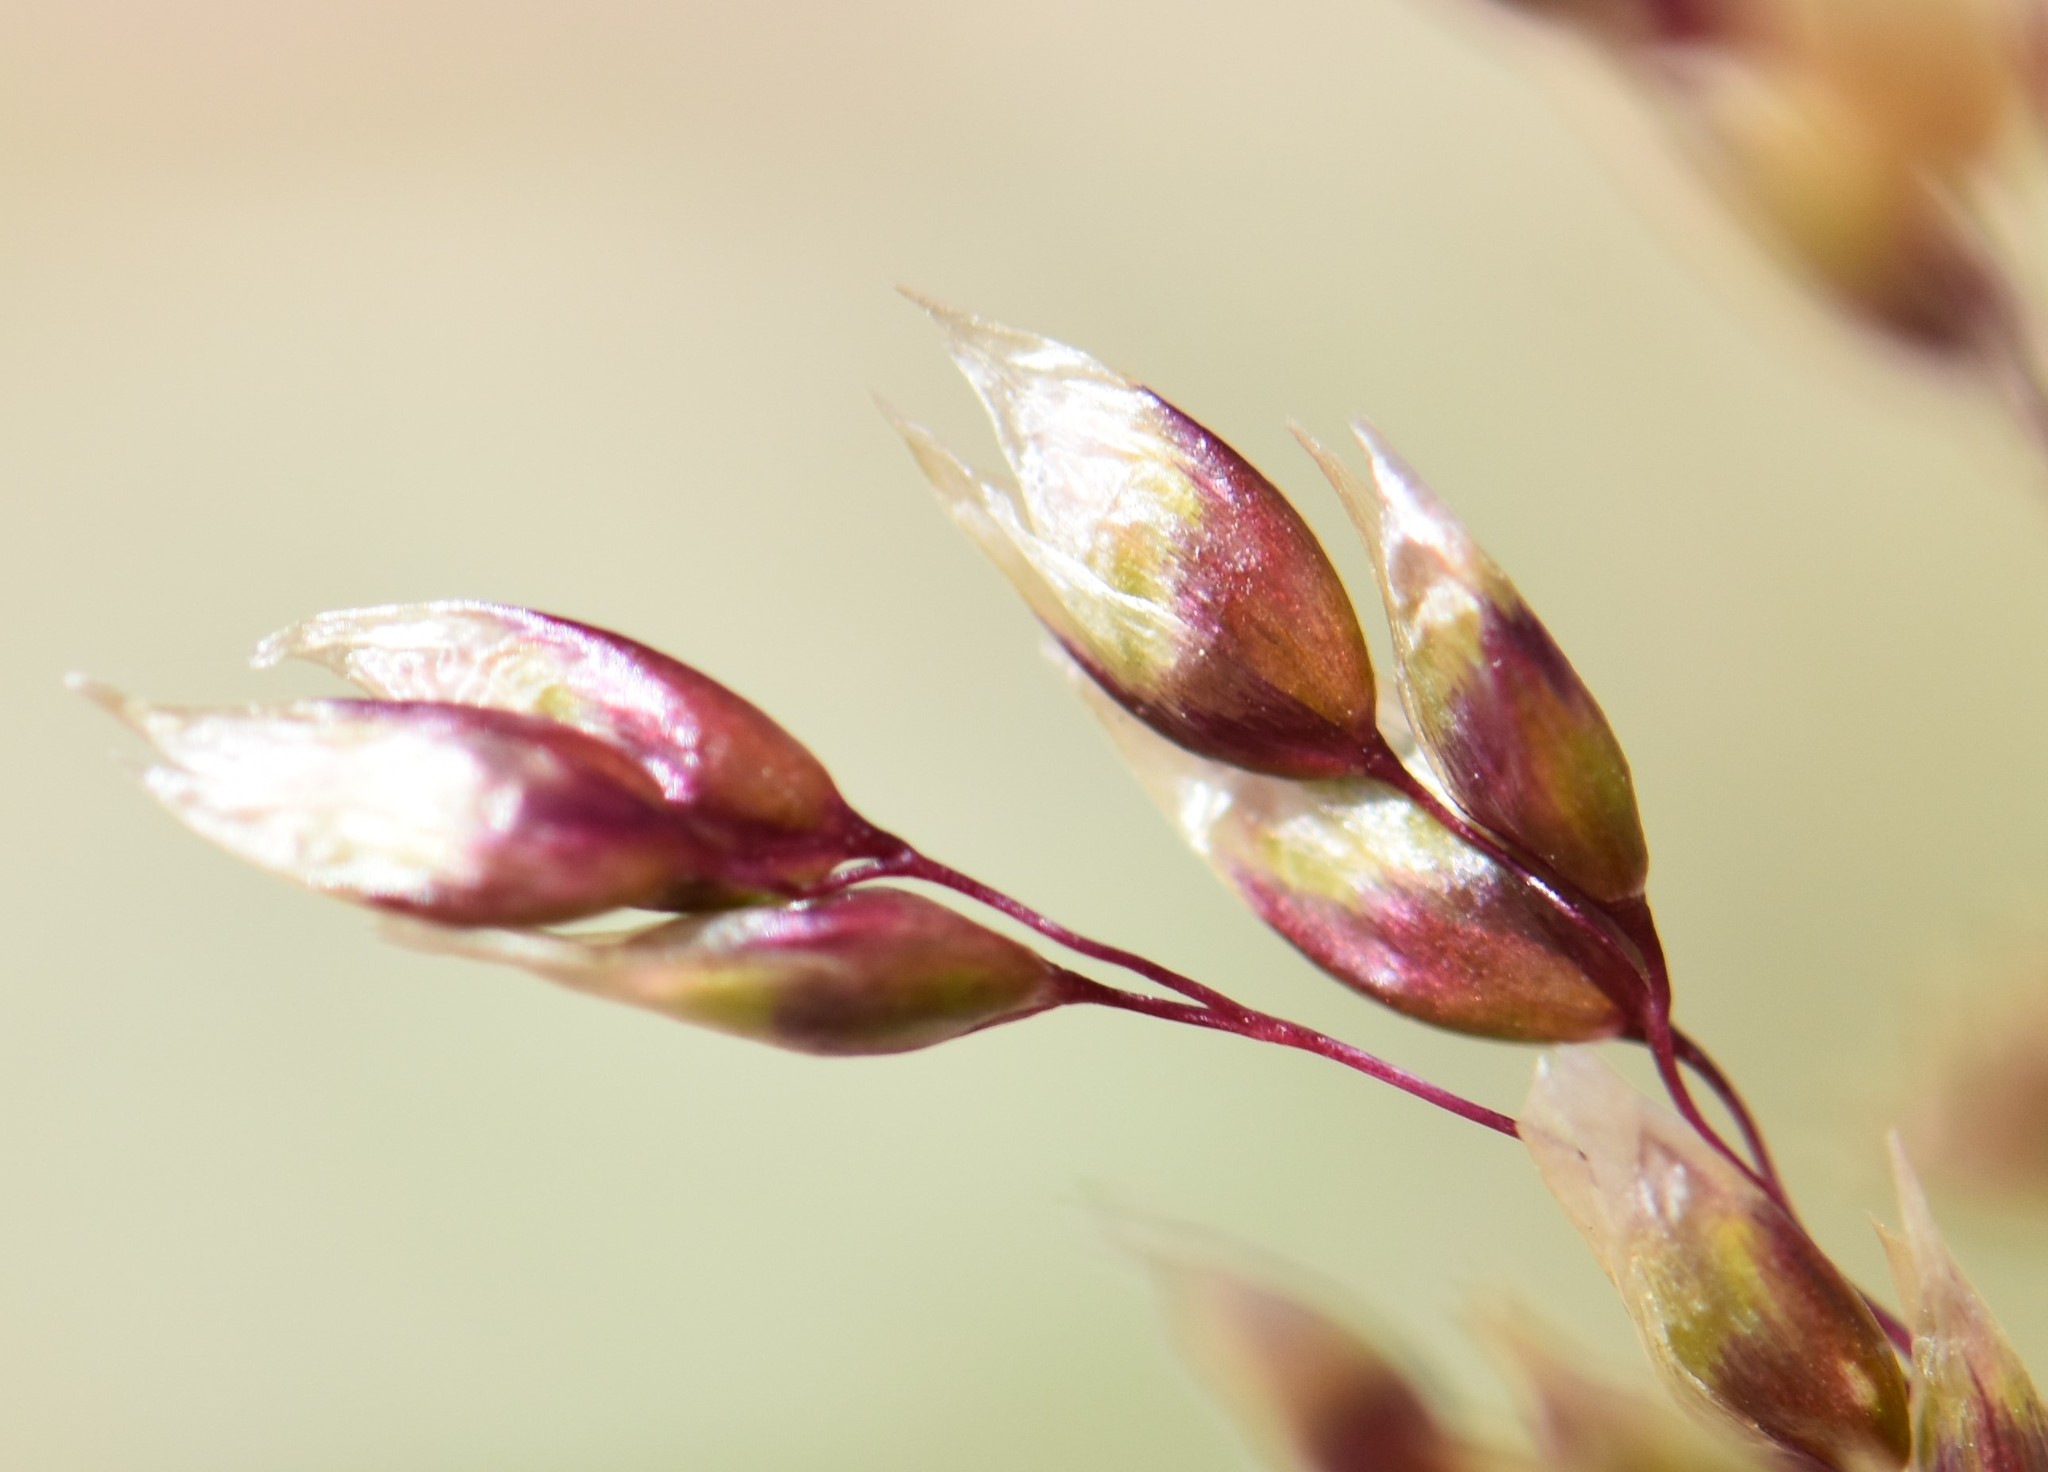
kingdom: Plantae
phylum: Tracheophyta
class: Liliopsida
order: Poales
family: Poaceae
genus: Anthoxanthum
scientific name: Anthoxanthum nitens
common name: Holy grass
